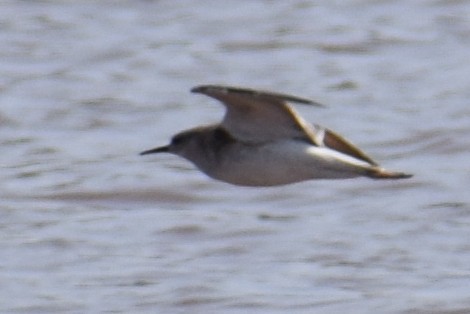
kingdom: Animalia
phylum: Chordata
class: Aves
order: Charadriiformes
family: Scolopacidae
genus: Calidris
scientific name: Calidris pugnax
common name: Ruff
